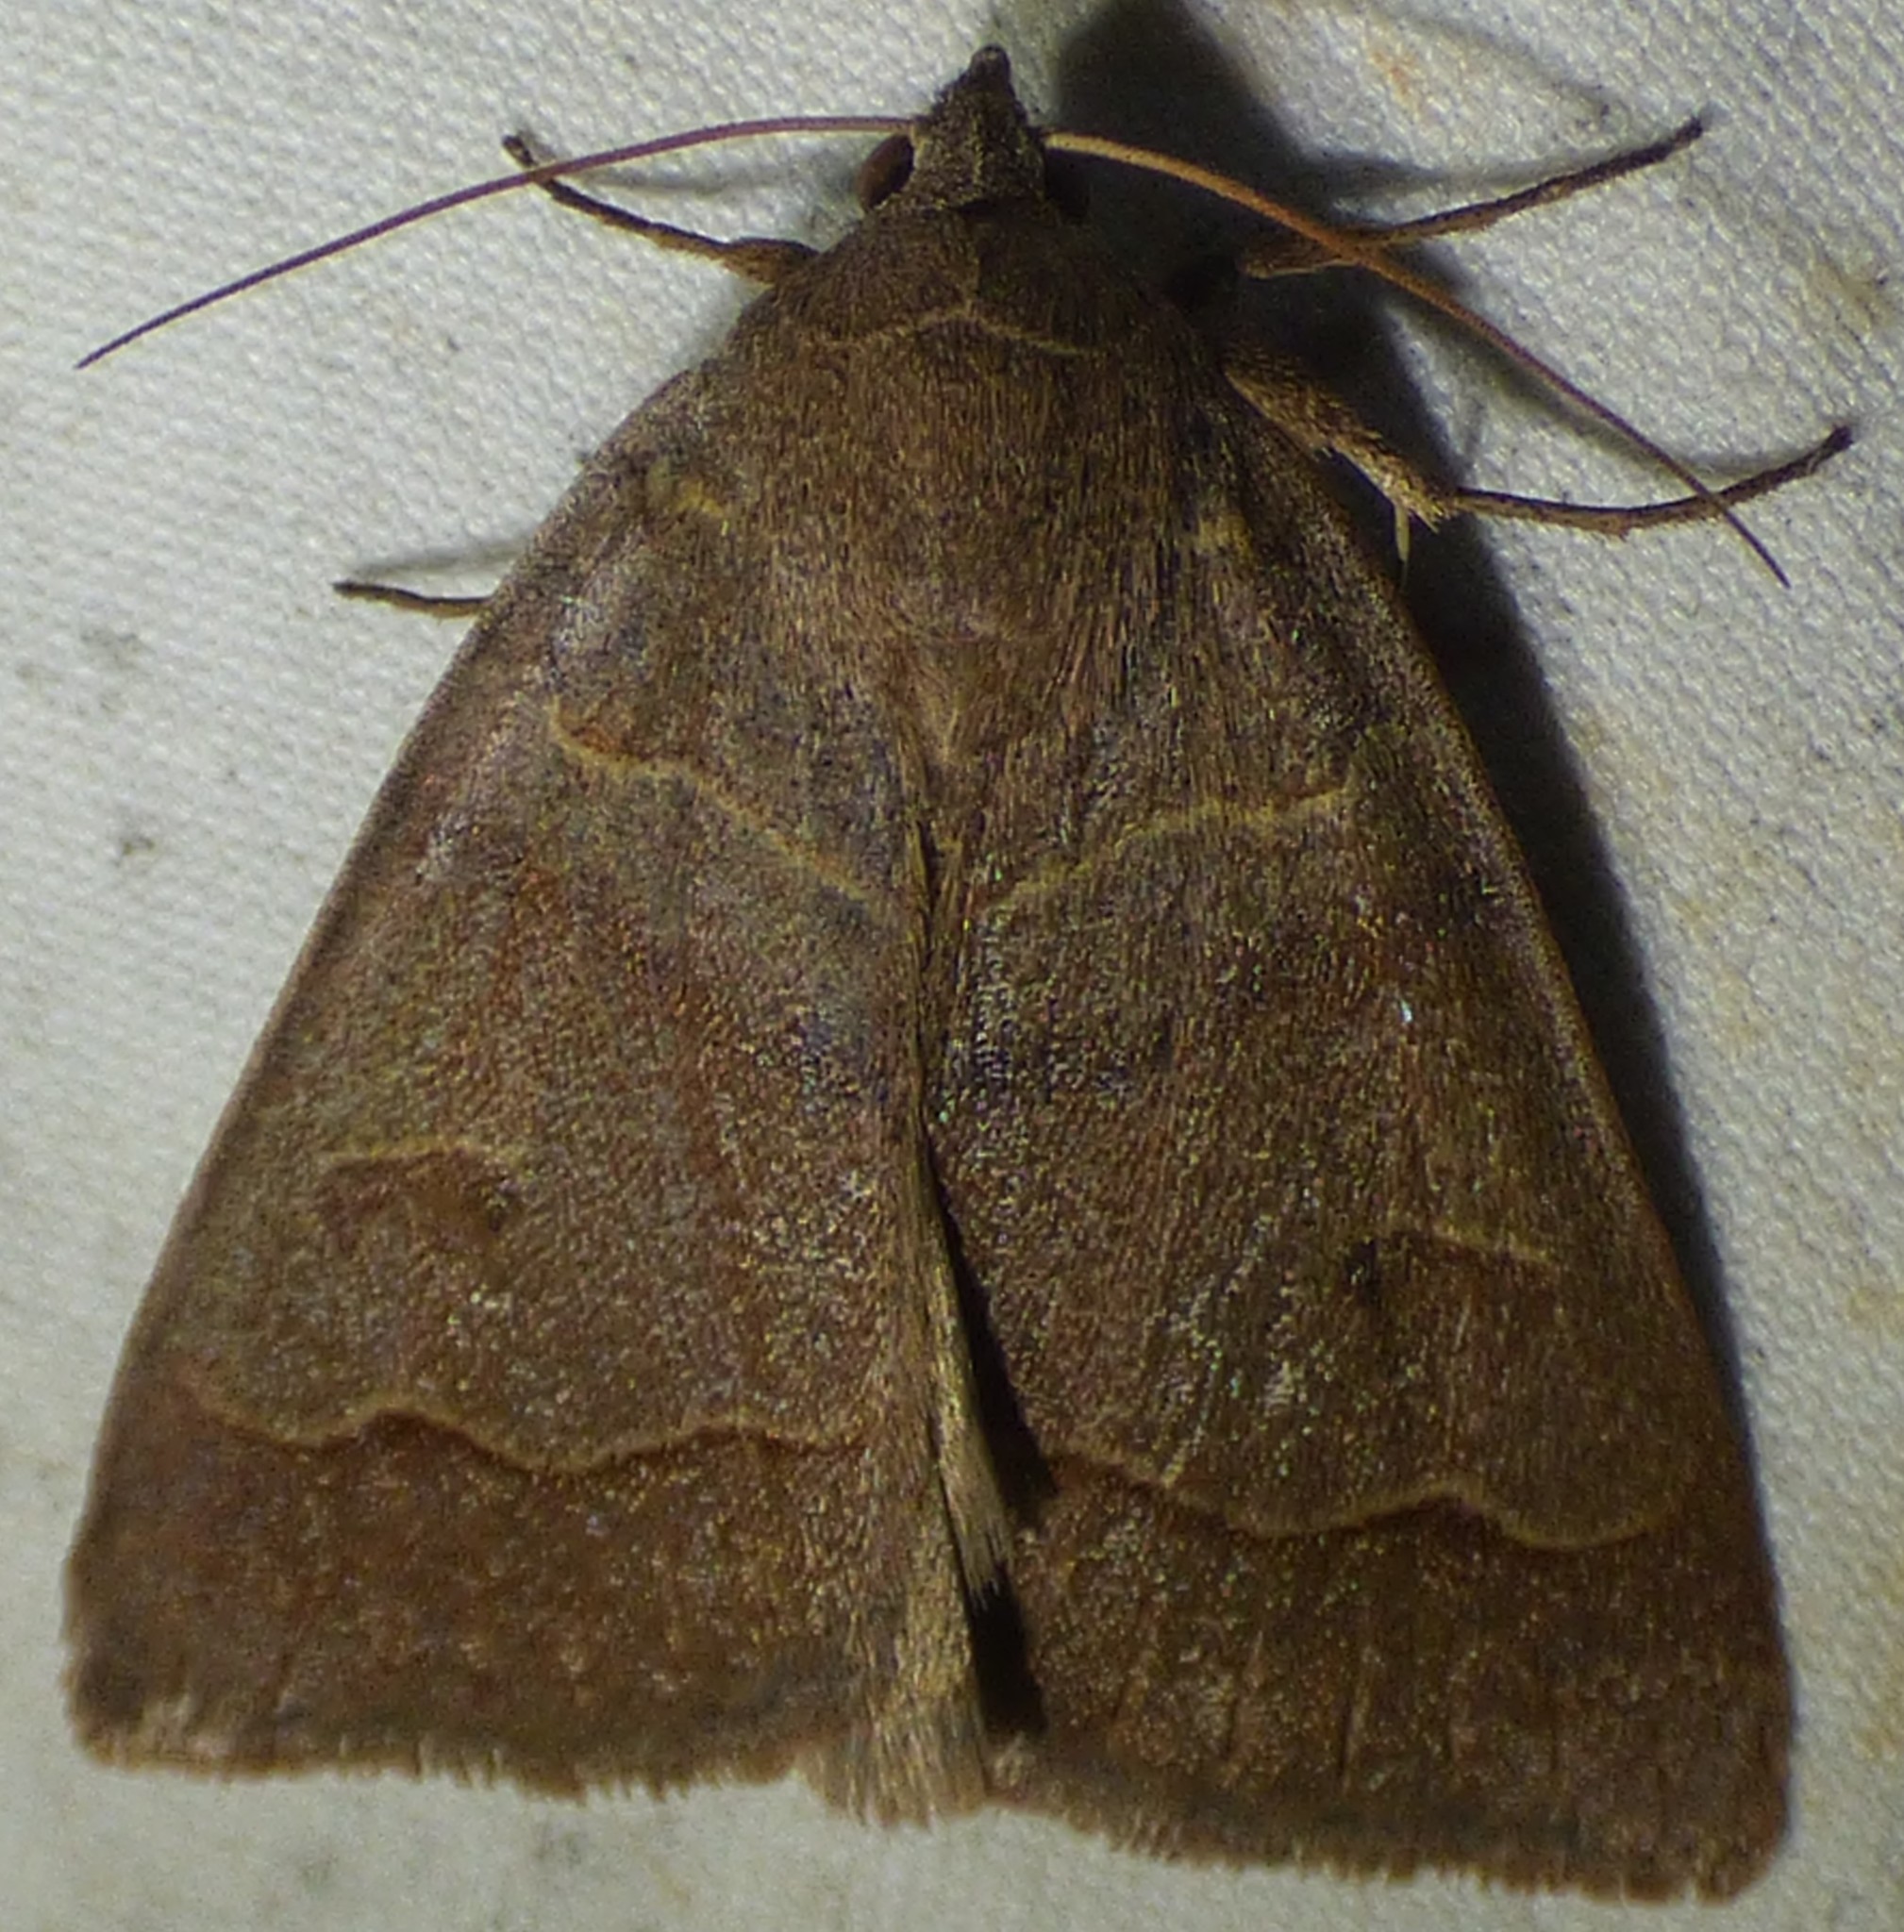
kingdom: Animalia
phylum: Arthropoda
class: Insecta
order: Lepidoptera
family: Erebidae
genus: Phoberia
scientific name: Phoberia atomaris
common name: Common oak moth
